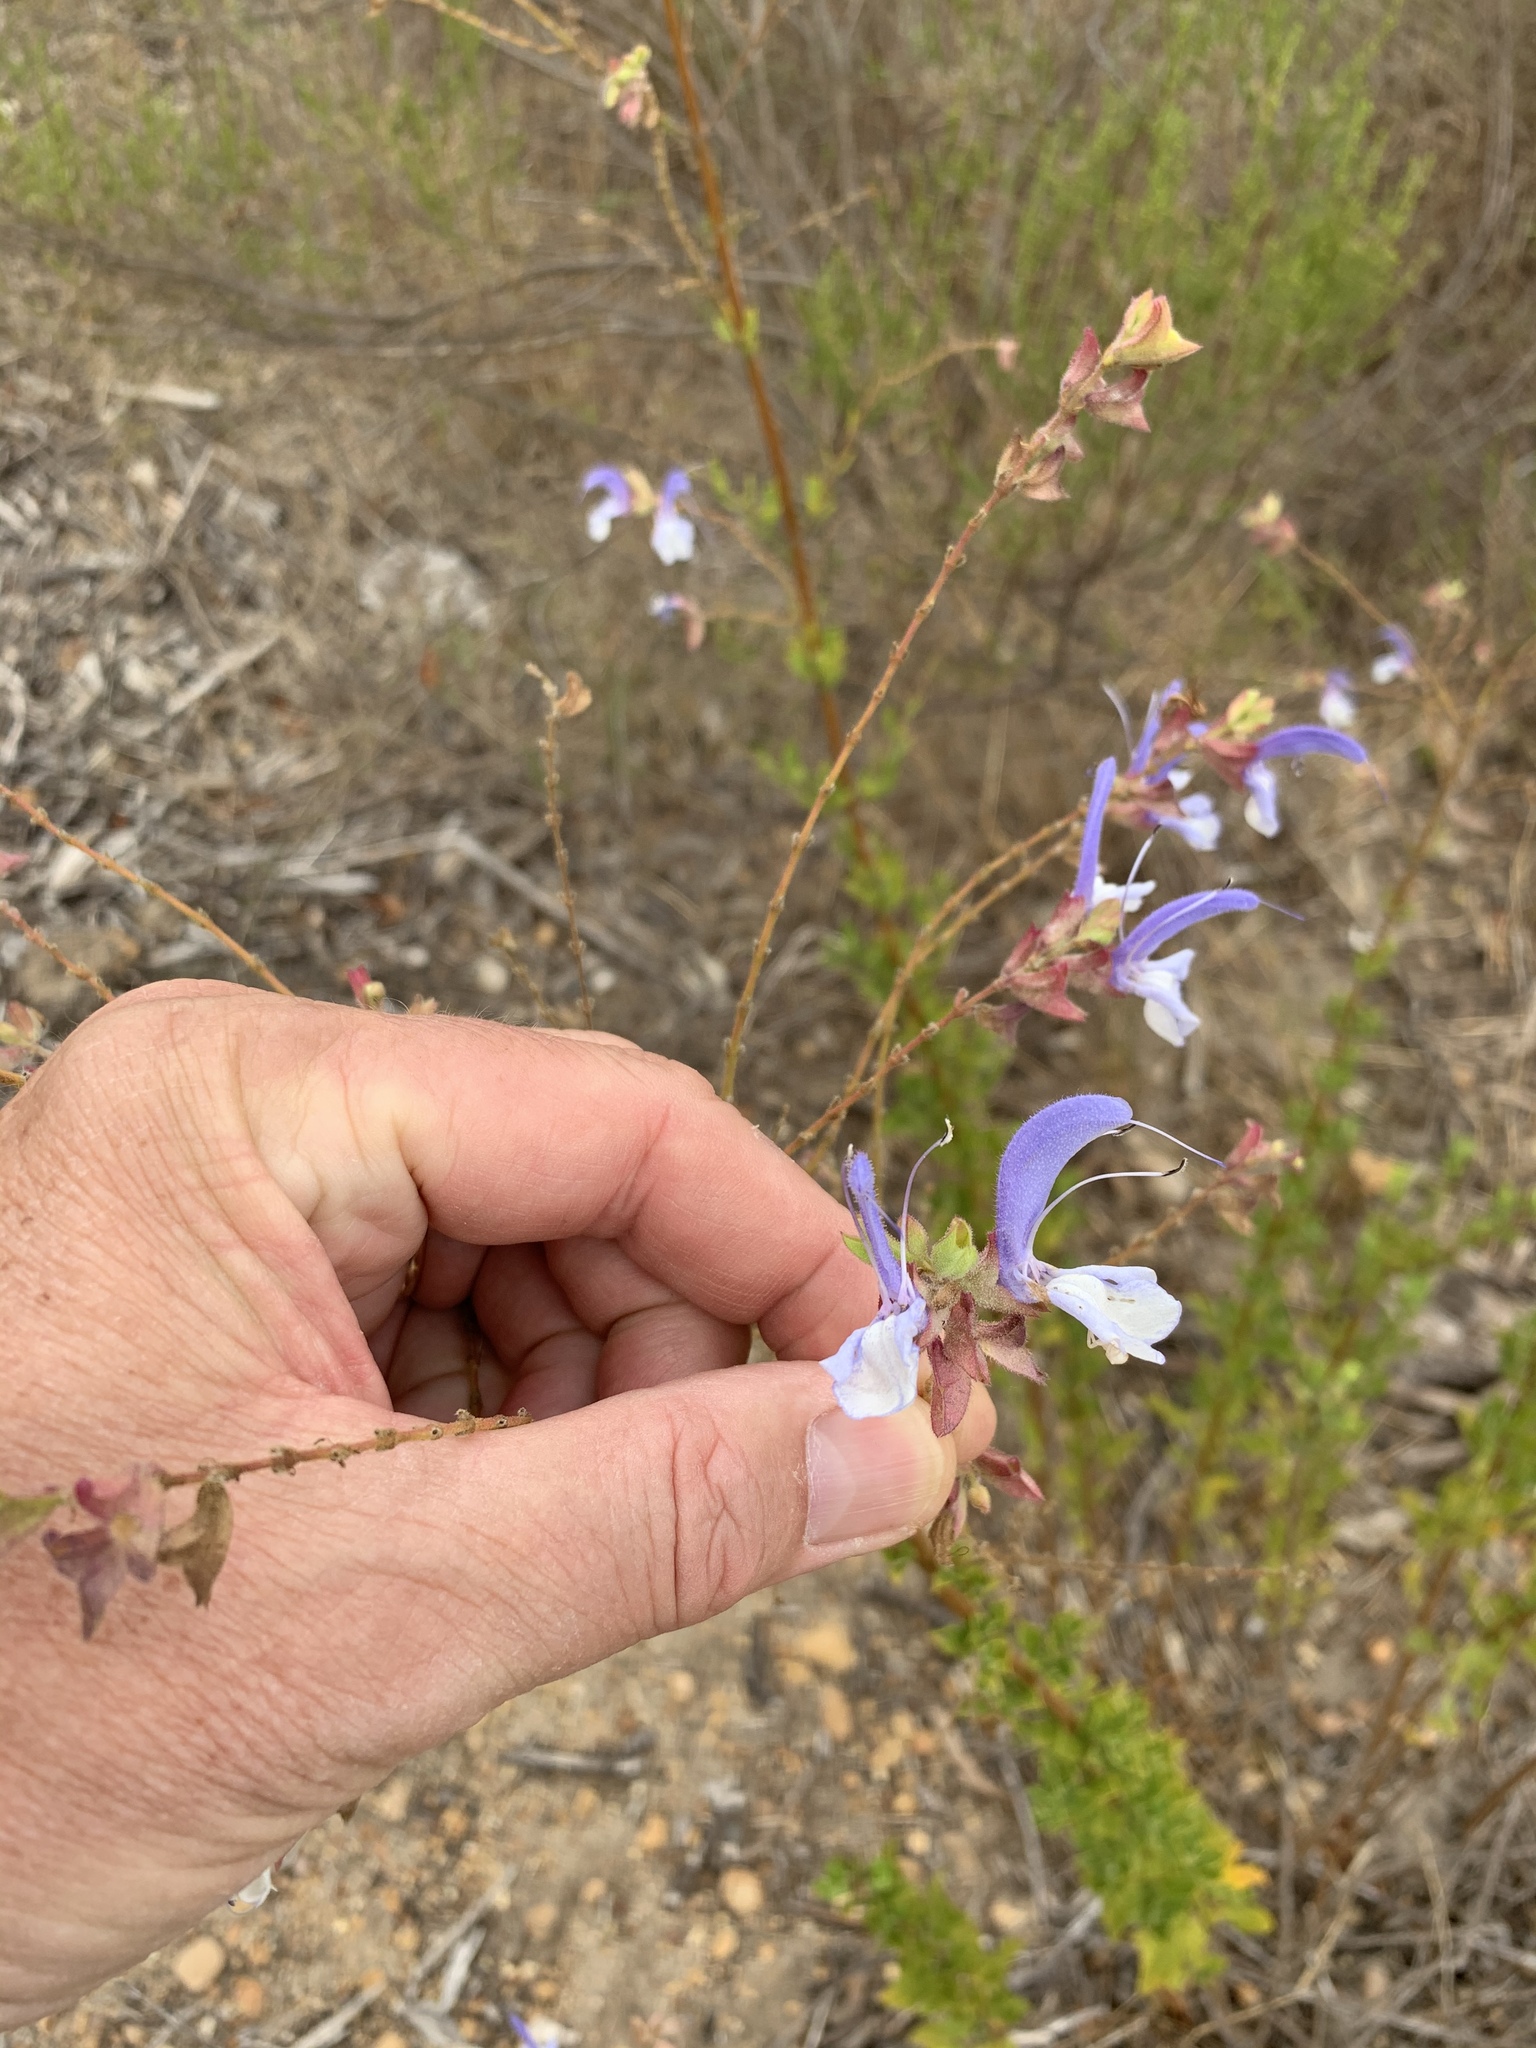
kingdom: Plantae
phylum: Tracheophyta
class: Magnoliopsida
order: Lamiales
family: Lamiaceae
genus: Salvia
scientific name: Salvia chamelaeagnea
